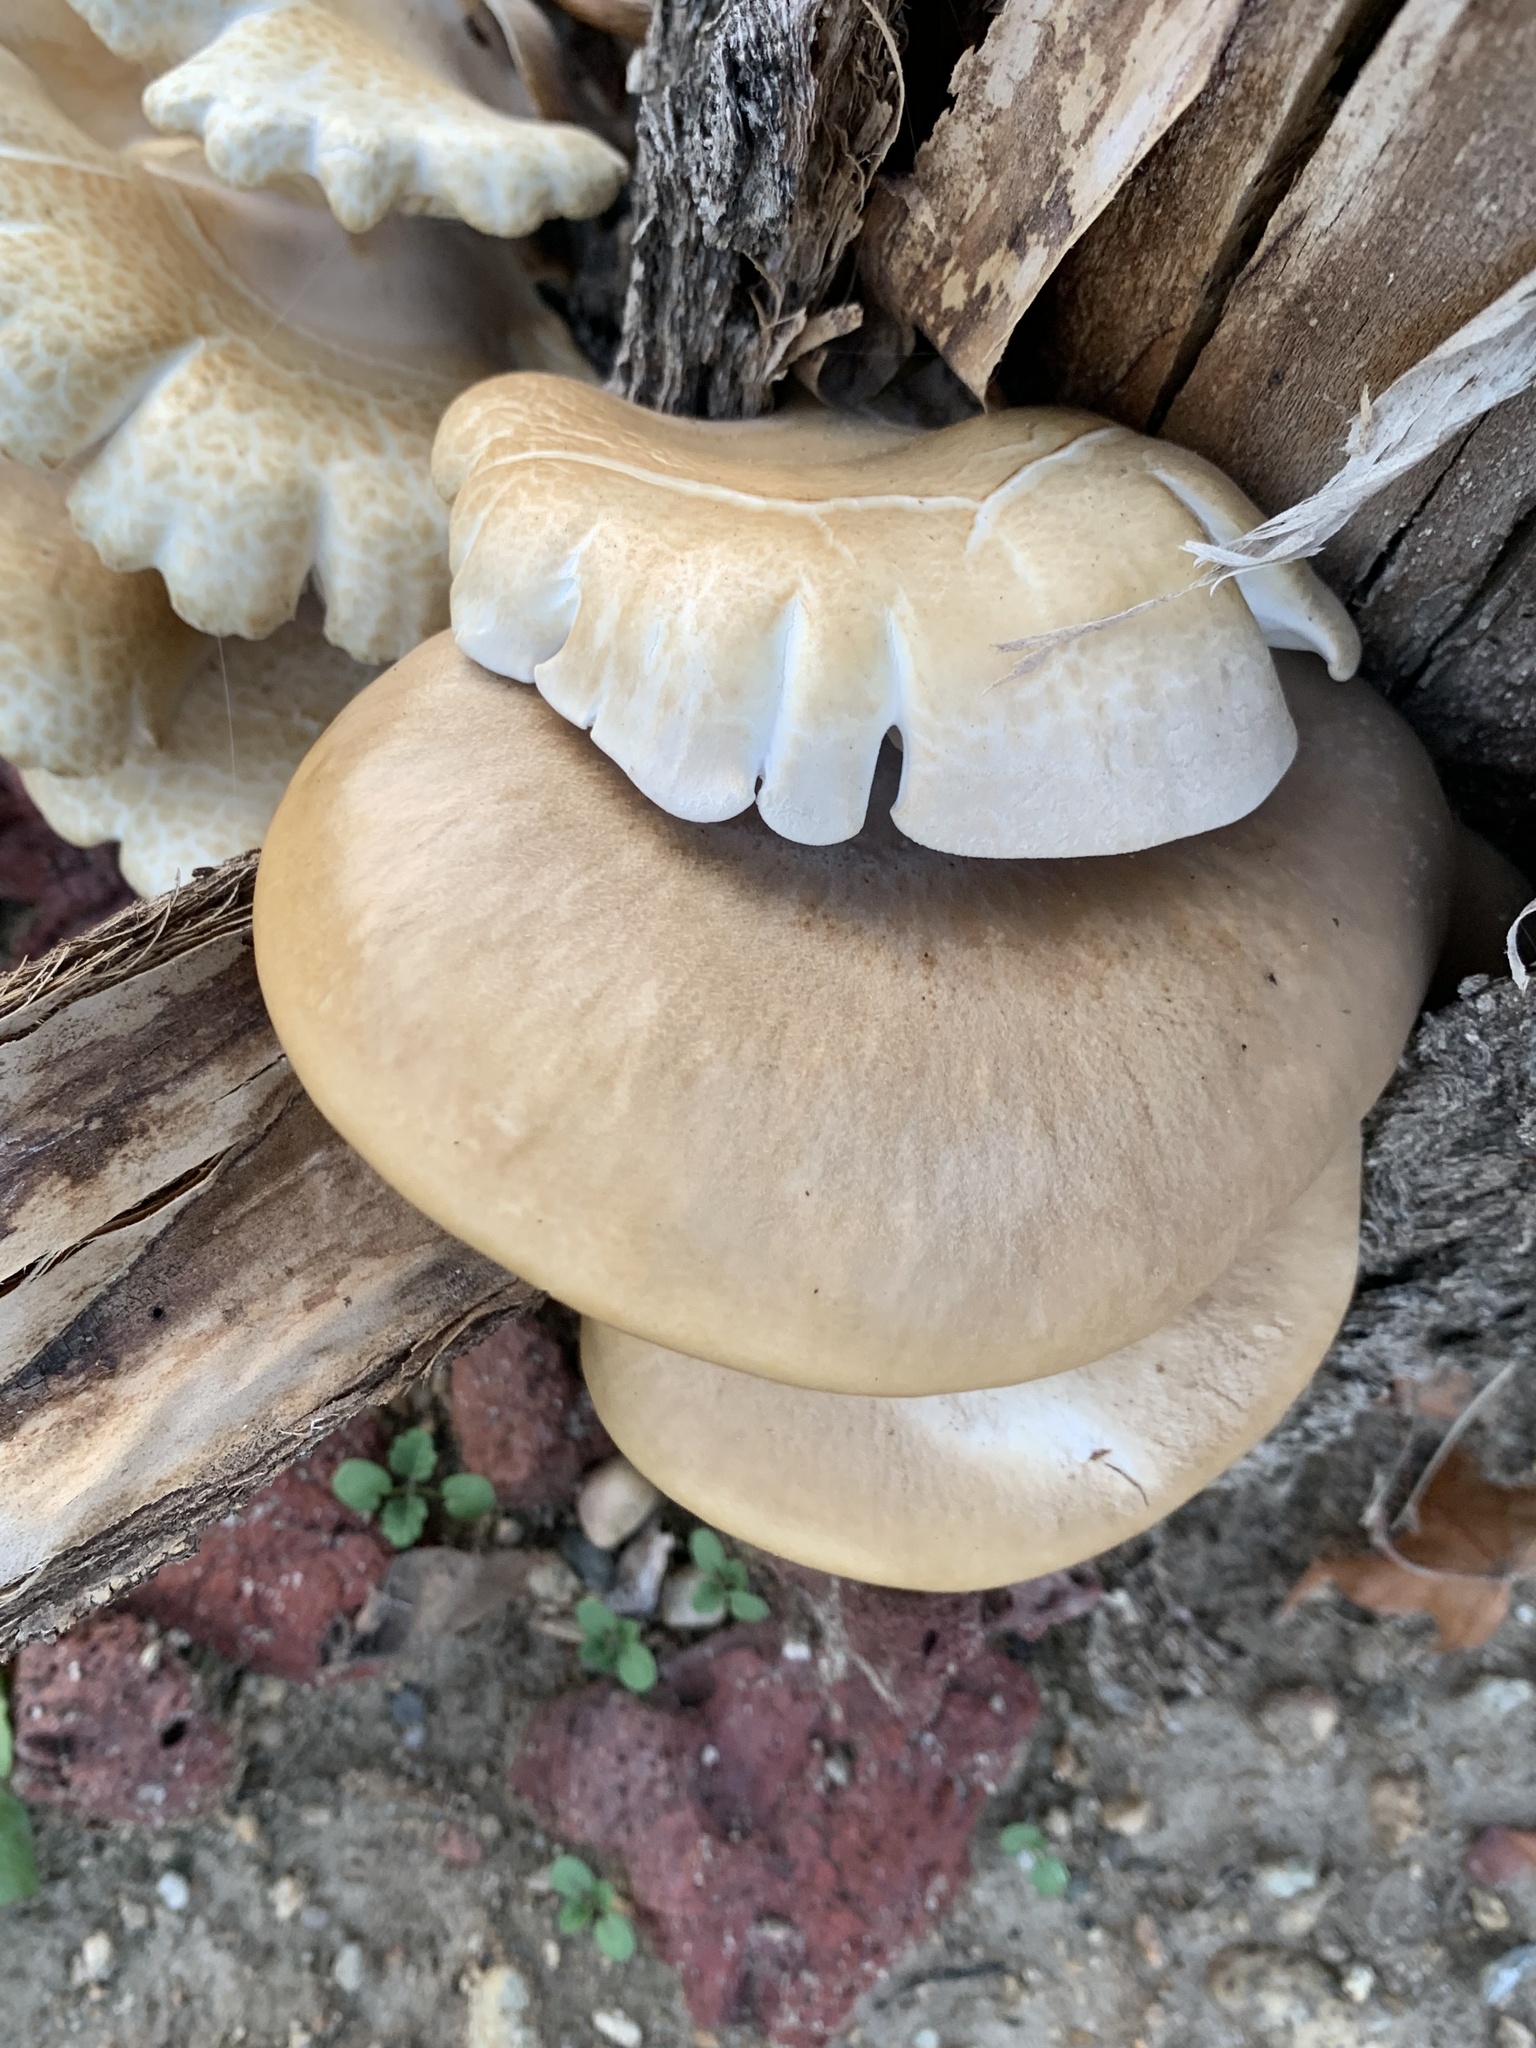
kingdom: Fungi
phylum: Basidiomycota
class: Agaricomycetes
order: Agaricales
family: Pleurotaceae
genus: Pleurotus
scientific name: Pleurotus
